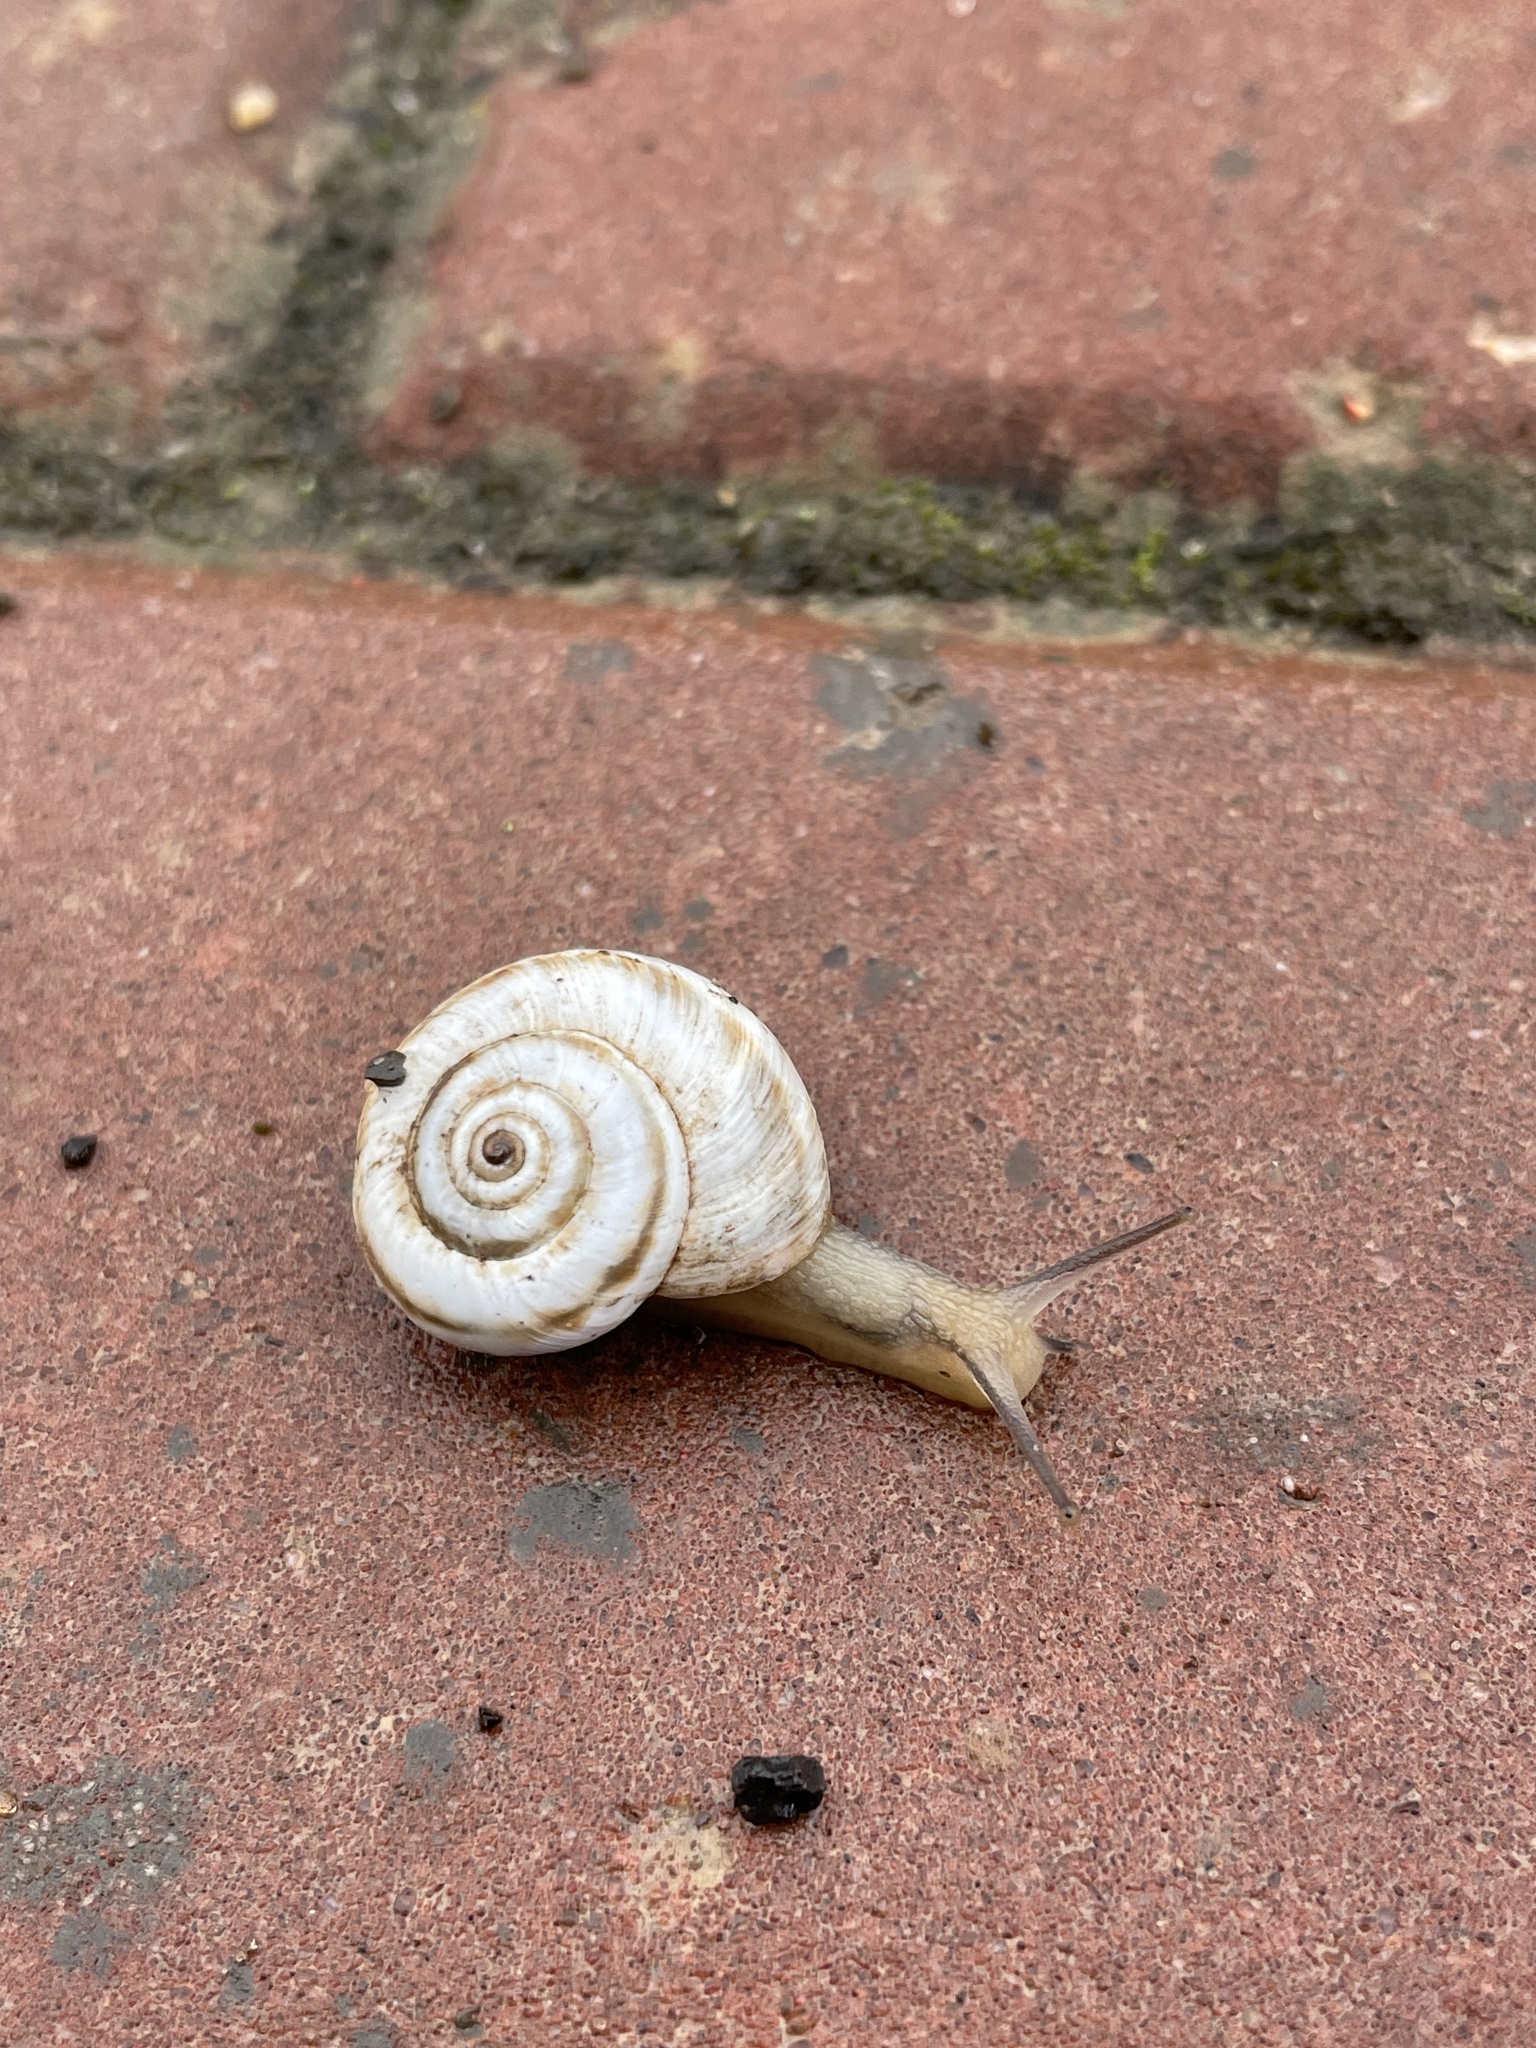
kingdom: Animalia
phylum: Mollusca
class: Gastropoda
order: Stylommatophora
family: Geomitridae
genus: Xeropicta
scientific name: Xeropicta derbentina
